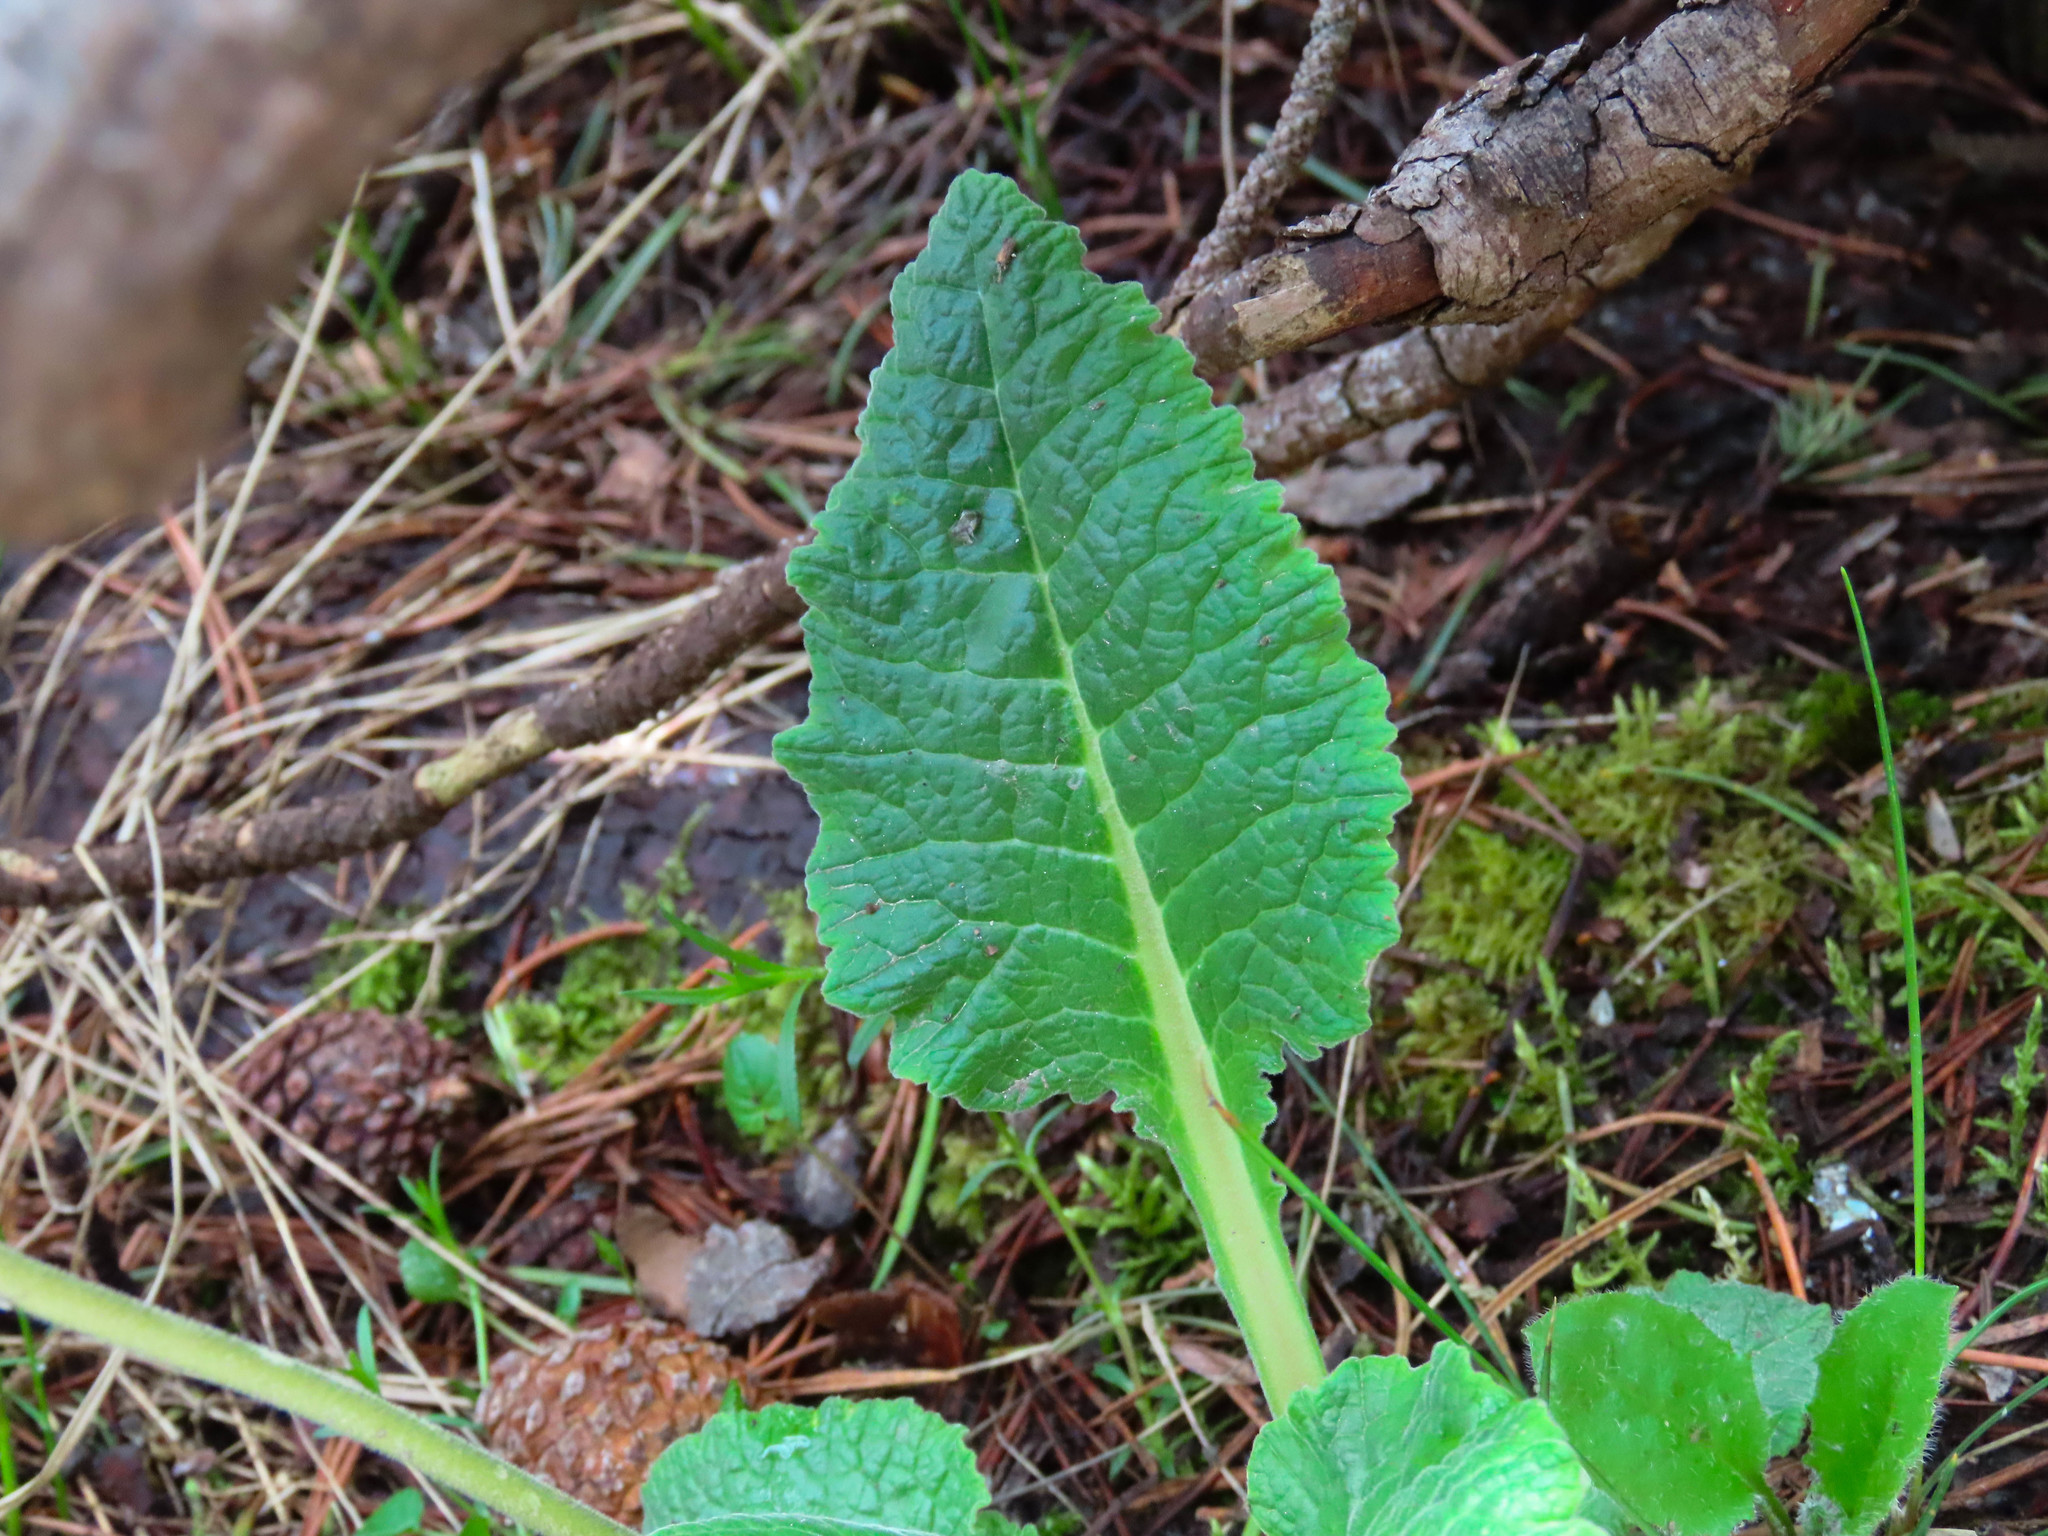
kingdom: Plantae
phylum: Tracheophyta
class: Magnoliopsida
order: Ericales
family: Primulaceae
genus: Primula
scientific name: Primula veris
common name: Cowslip
